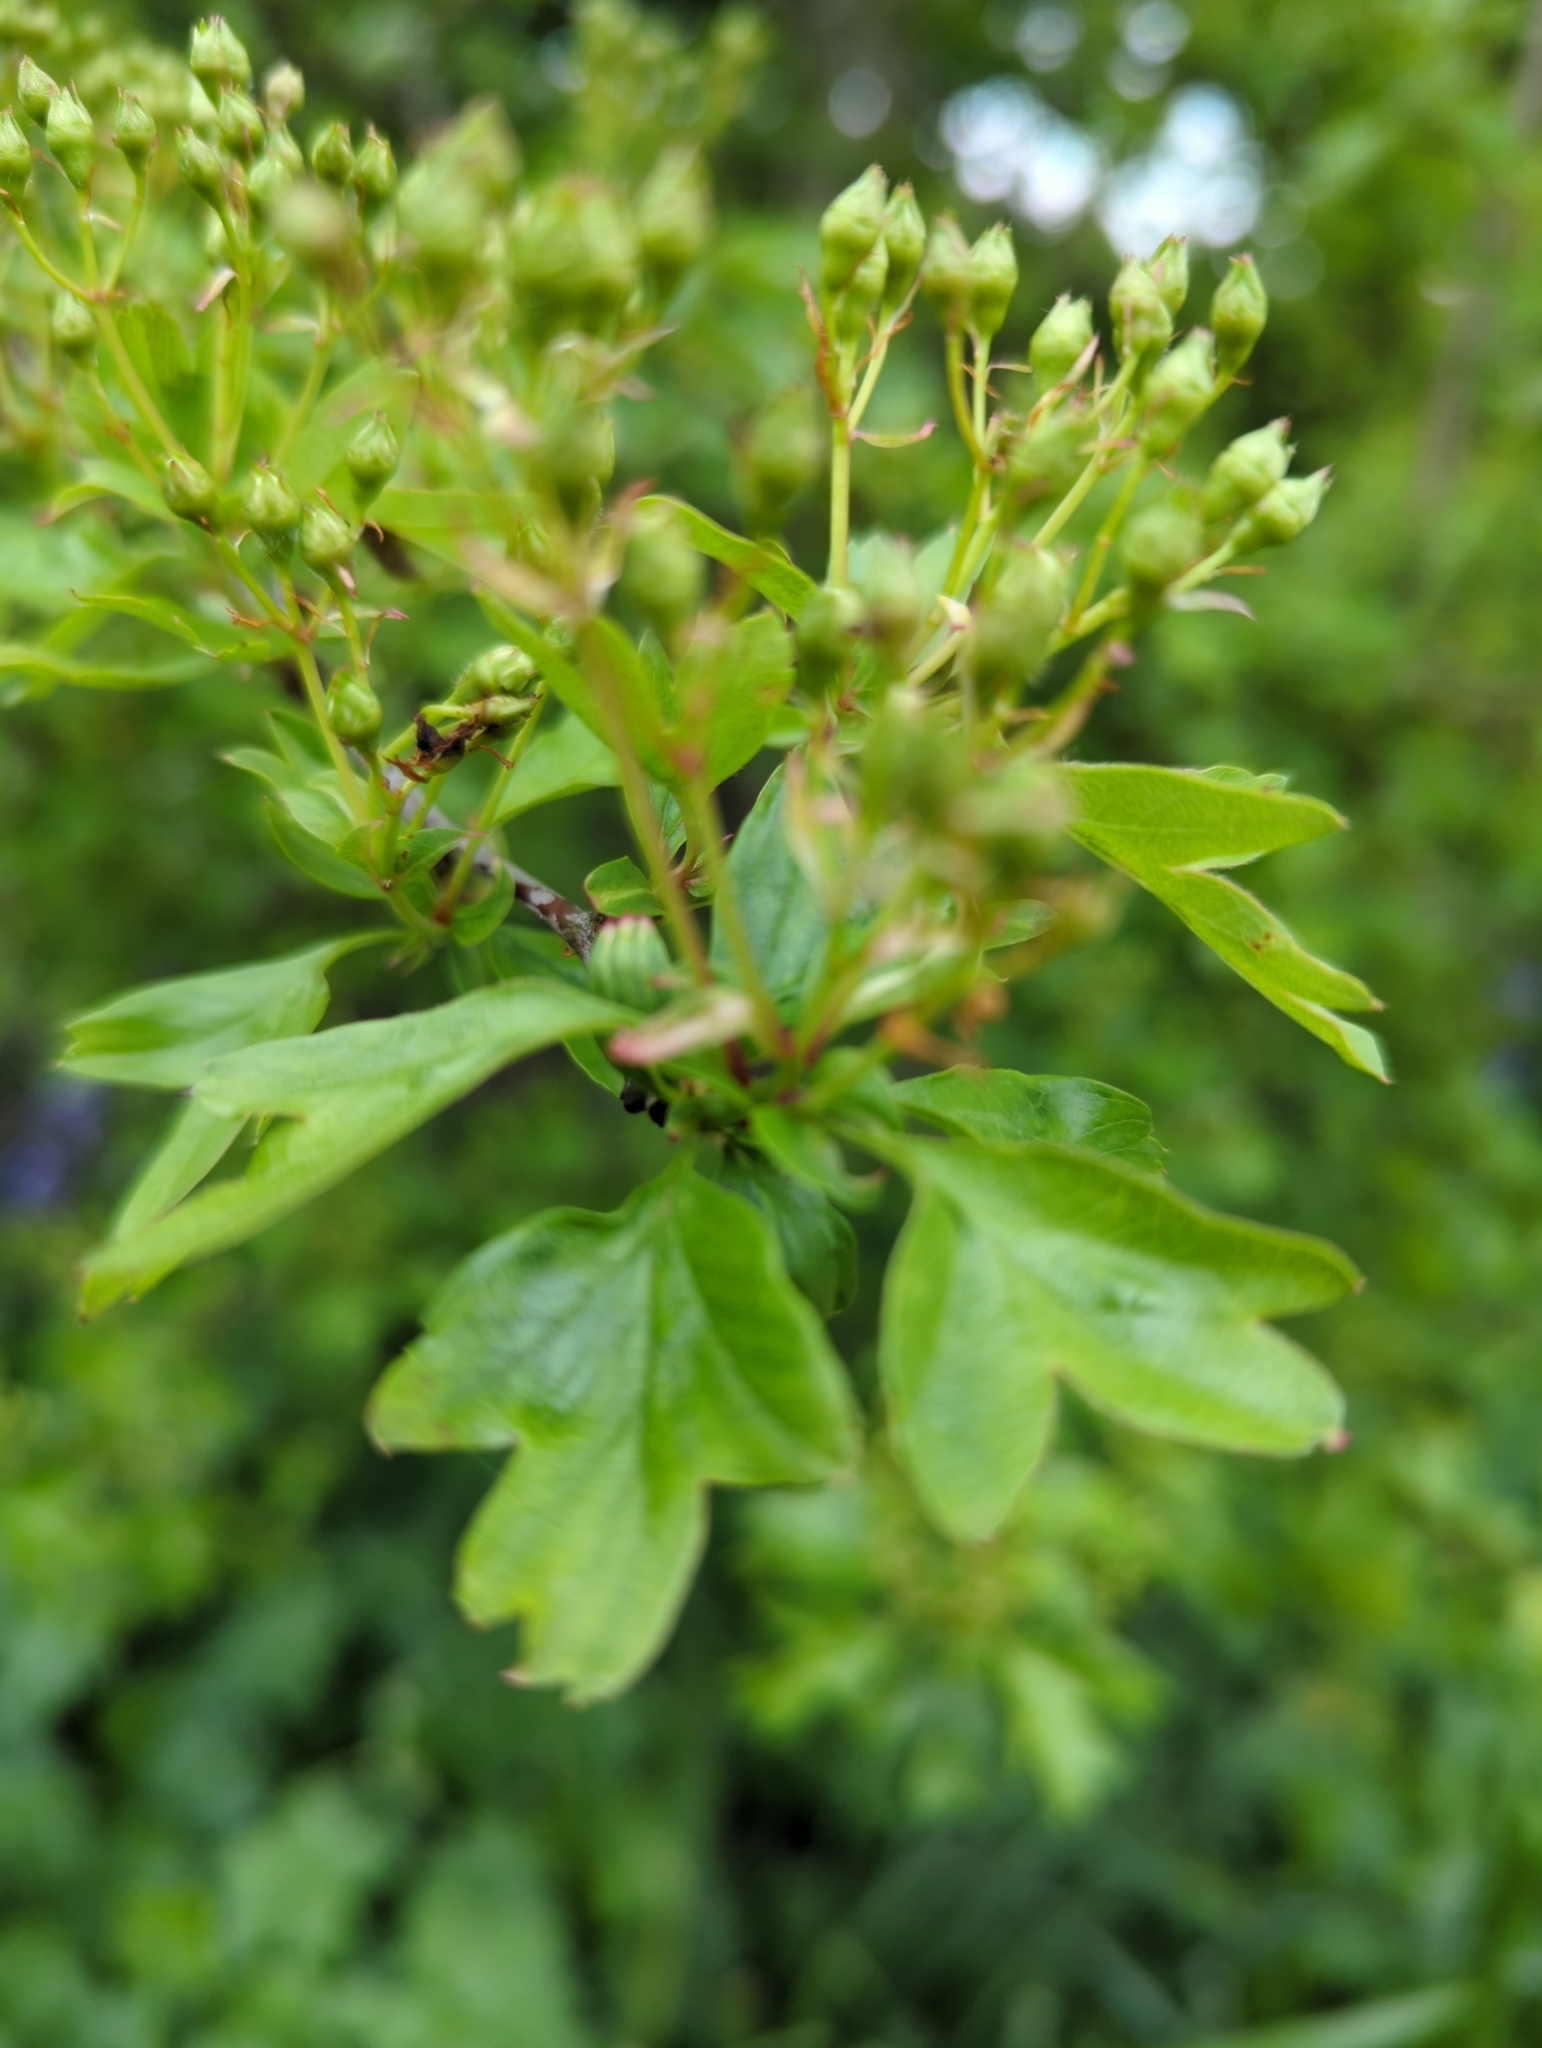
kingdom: Plantae
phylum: Tracheophyta
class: Magnoliopsida
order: Rosales
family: Rosaceae
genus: Crataegus
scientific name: Crataegus monogyna
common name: Hawthorn
